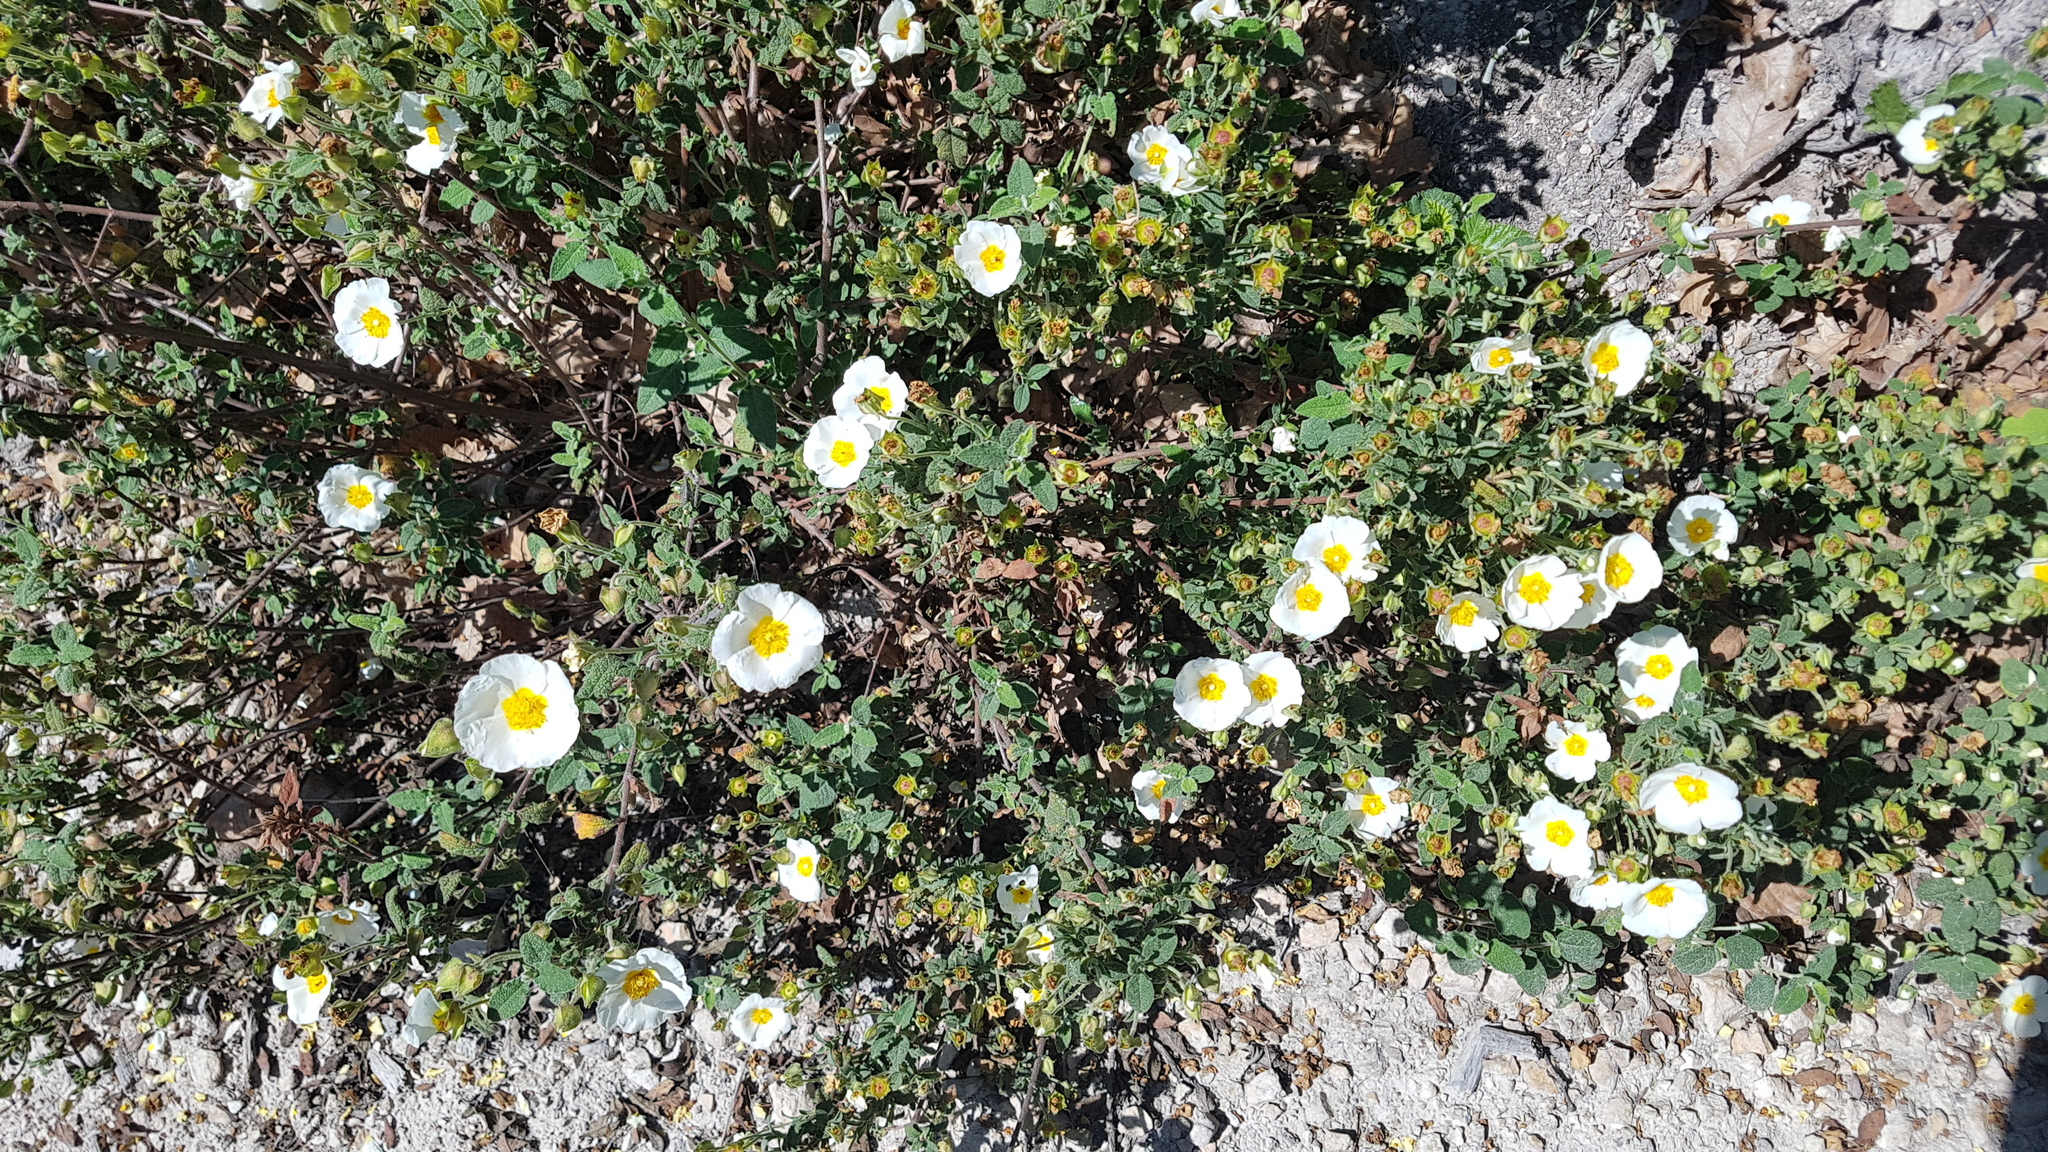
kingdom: Plantae
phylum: Tracheophyta
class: Magnoliopsida
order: Malvales
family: Cistaceae
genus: Cistus
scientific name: Cistus salviifolius
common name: Salvia cistus
